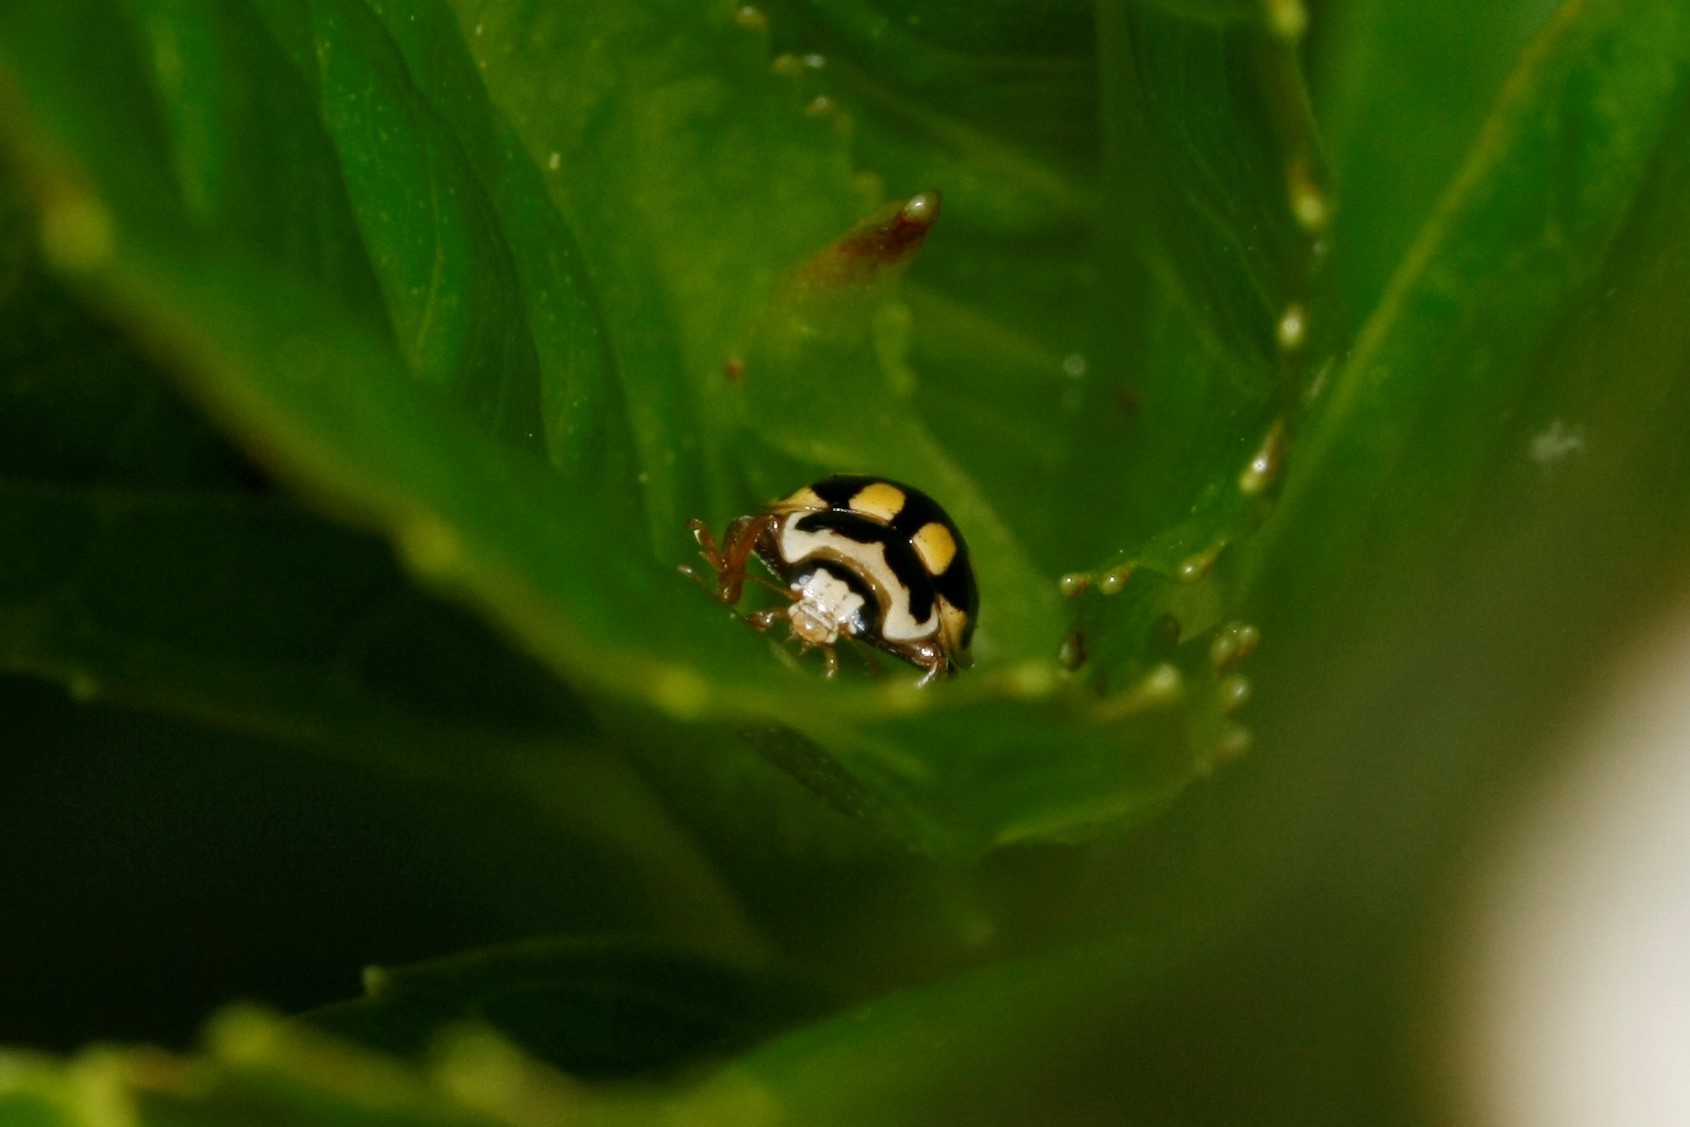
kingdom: Animalia
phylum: Arthropoda
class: Insecta
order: Coleoptera
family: Coccinellidae
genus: Propylaea
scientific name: Propylaea quatuordecimpunctata
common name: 14-spotted ladybird beetle
